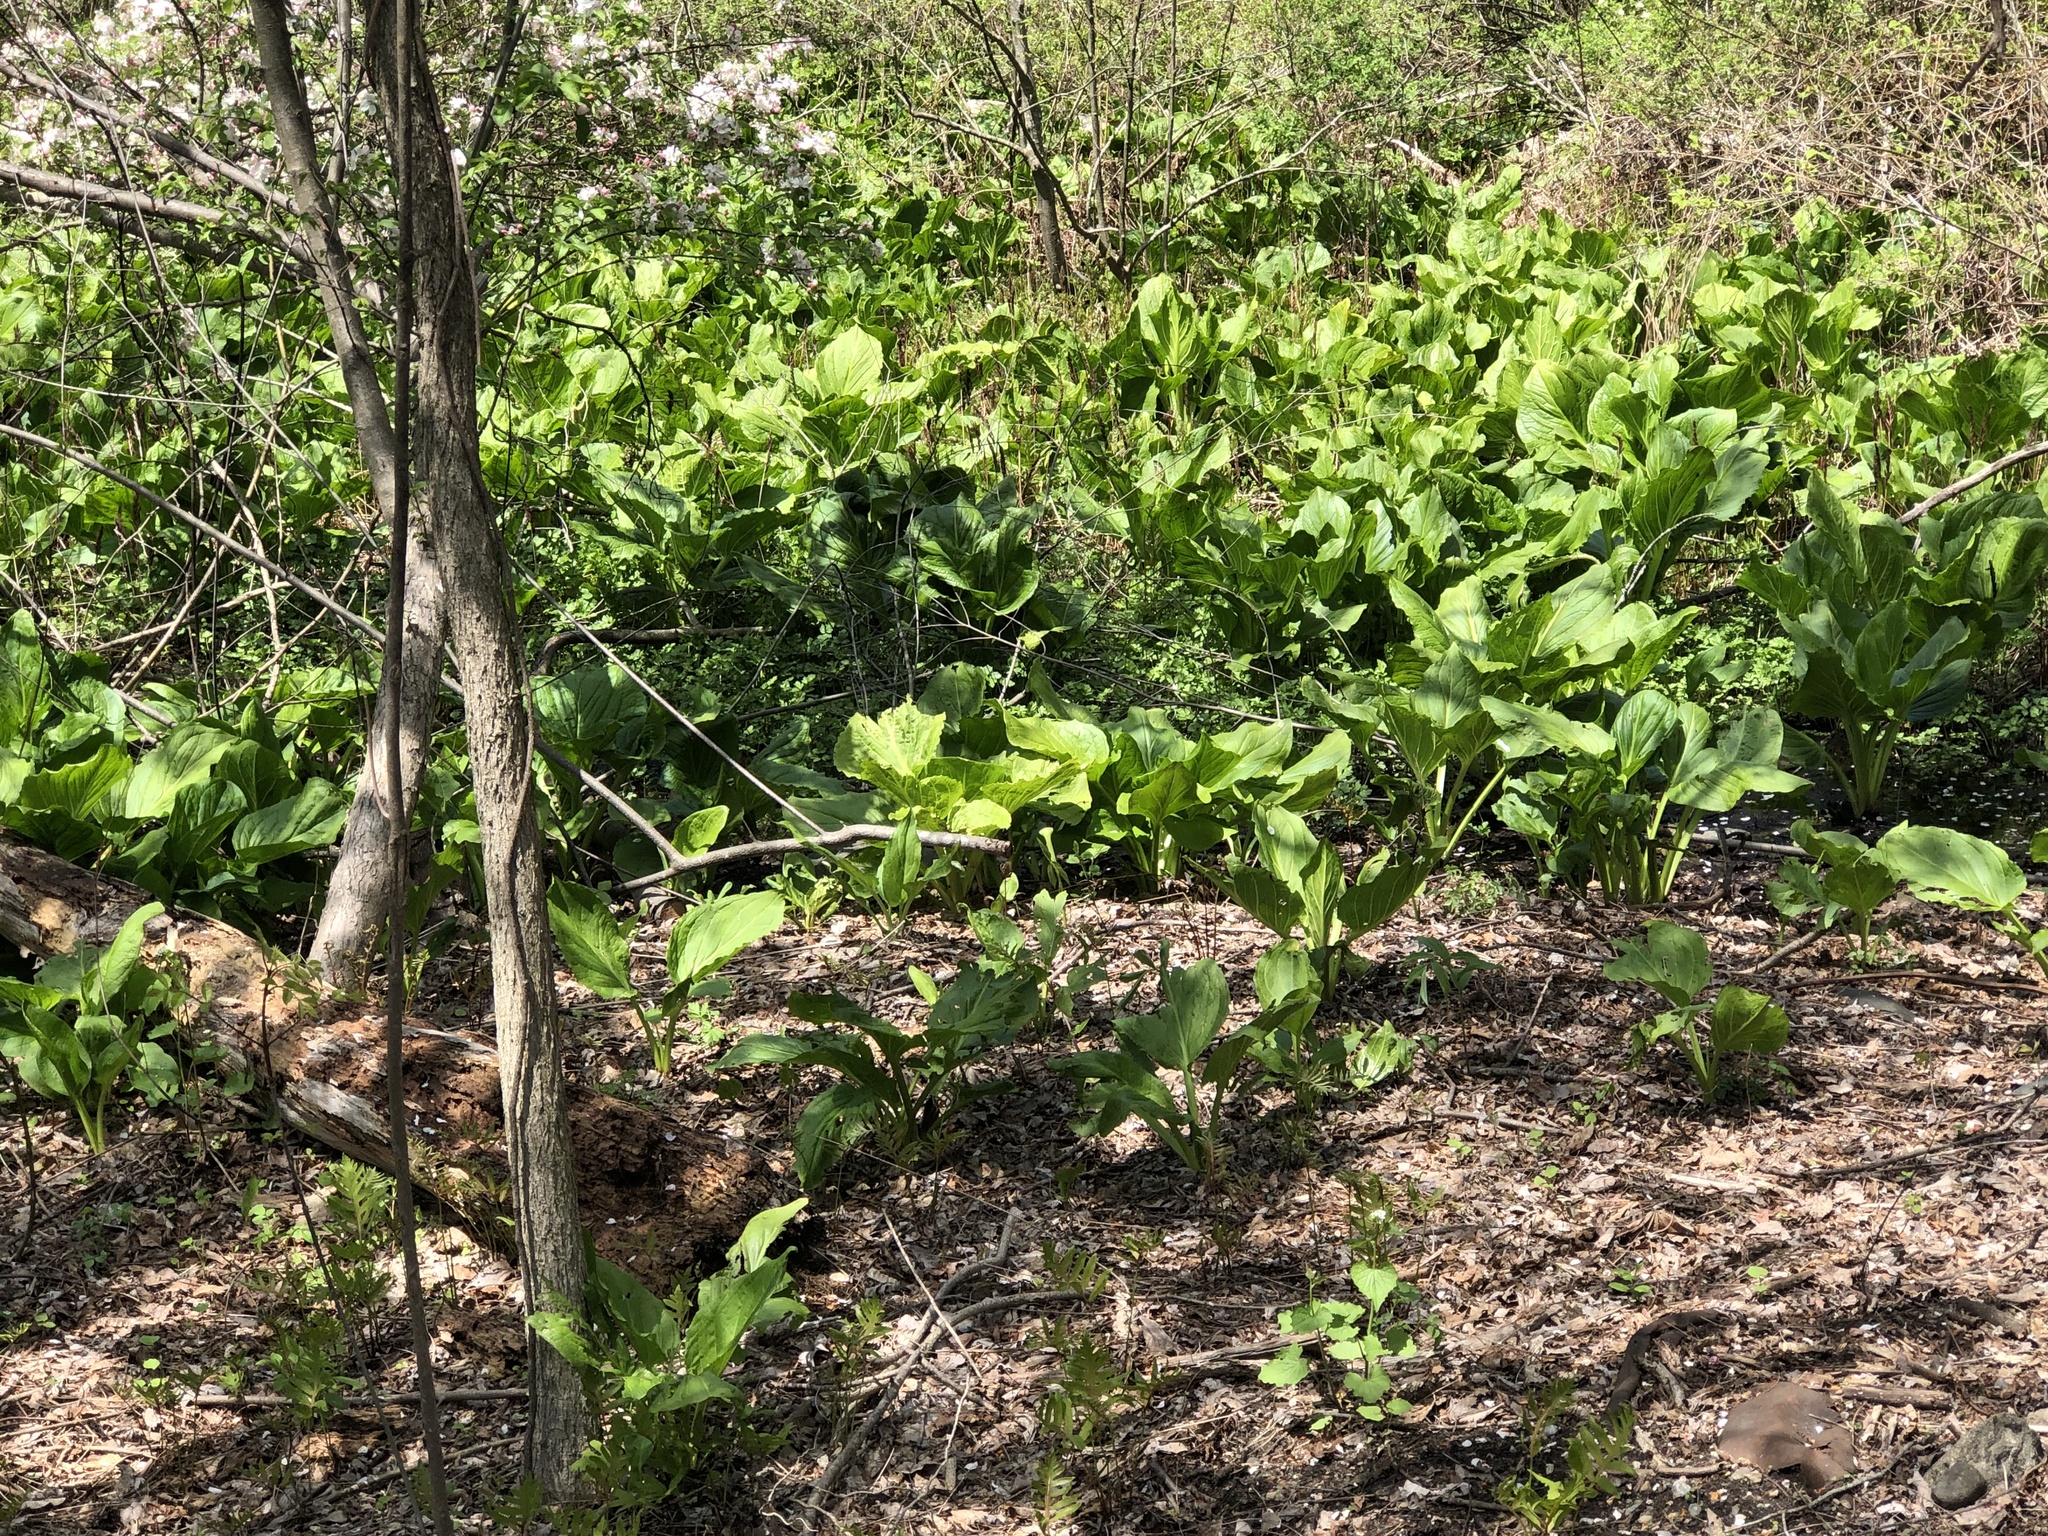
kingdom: Plantae
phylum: Tracheophyta
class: Liliopsida
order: Alismatales
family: Araceae
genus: Symplocarpus
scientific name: Symplocarpus foetidus
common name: Eastern skunk cabbage
